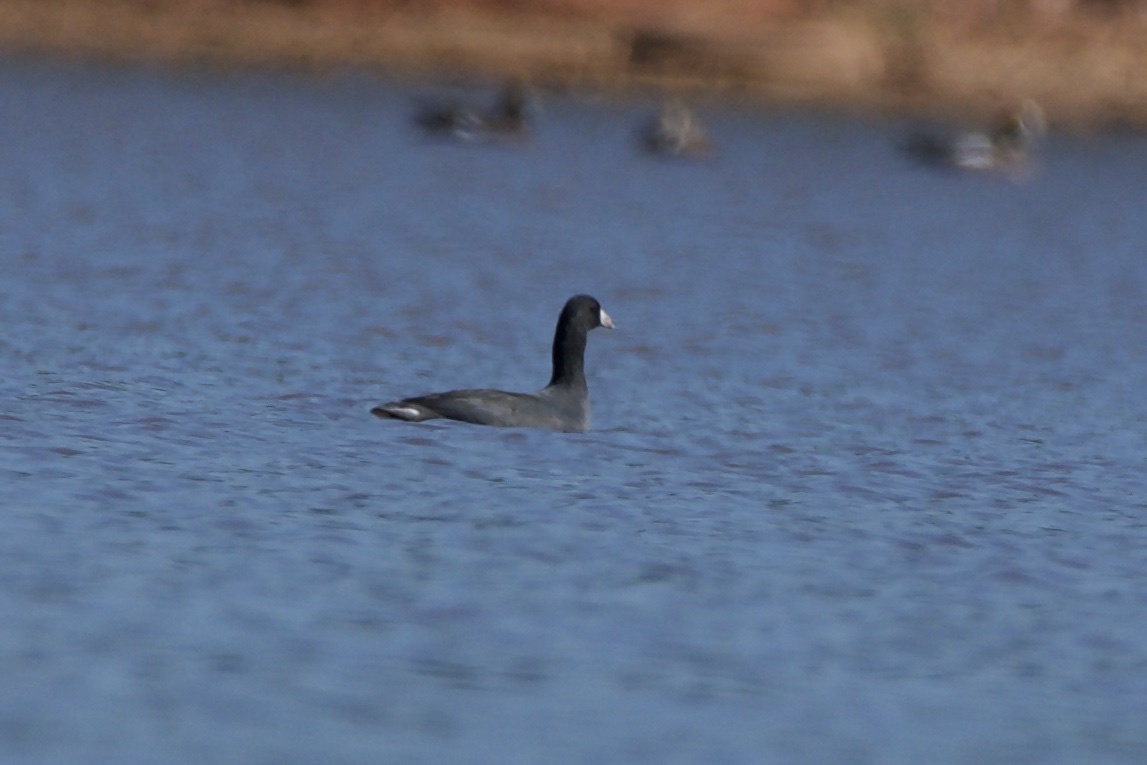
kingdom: Animalia
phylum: Chordata
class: Aves
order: Gruiformes
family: Rallidae
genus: Fulica
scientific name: Fulica americana
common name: American coot
